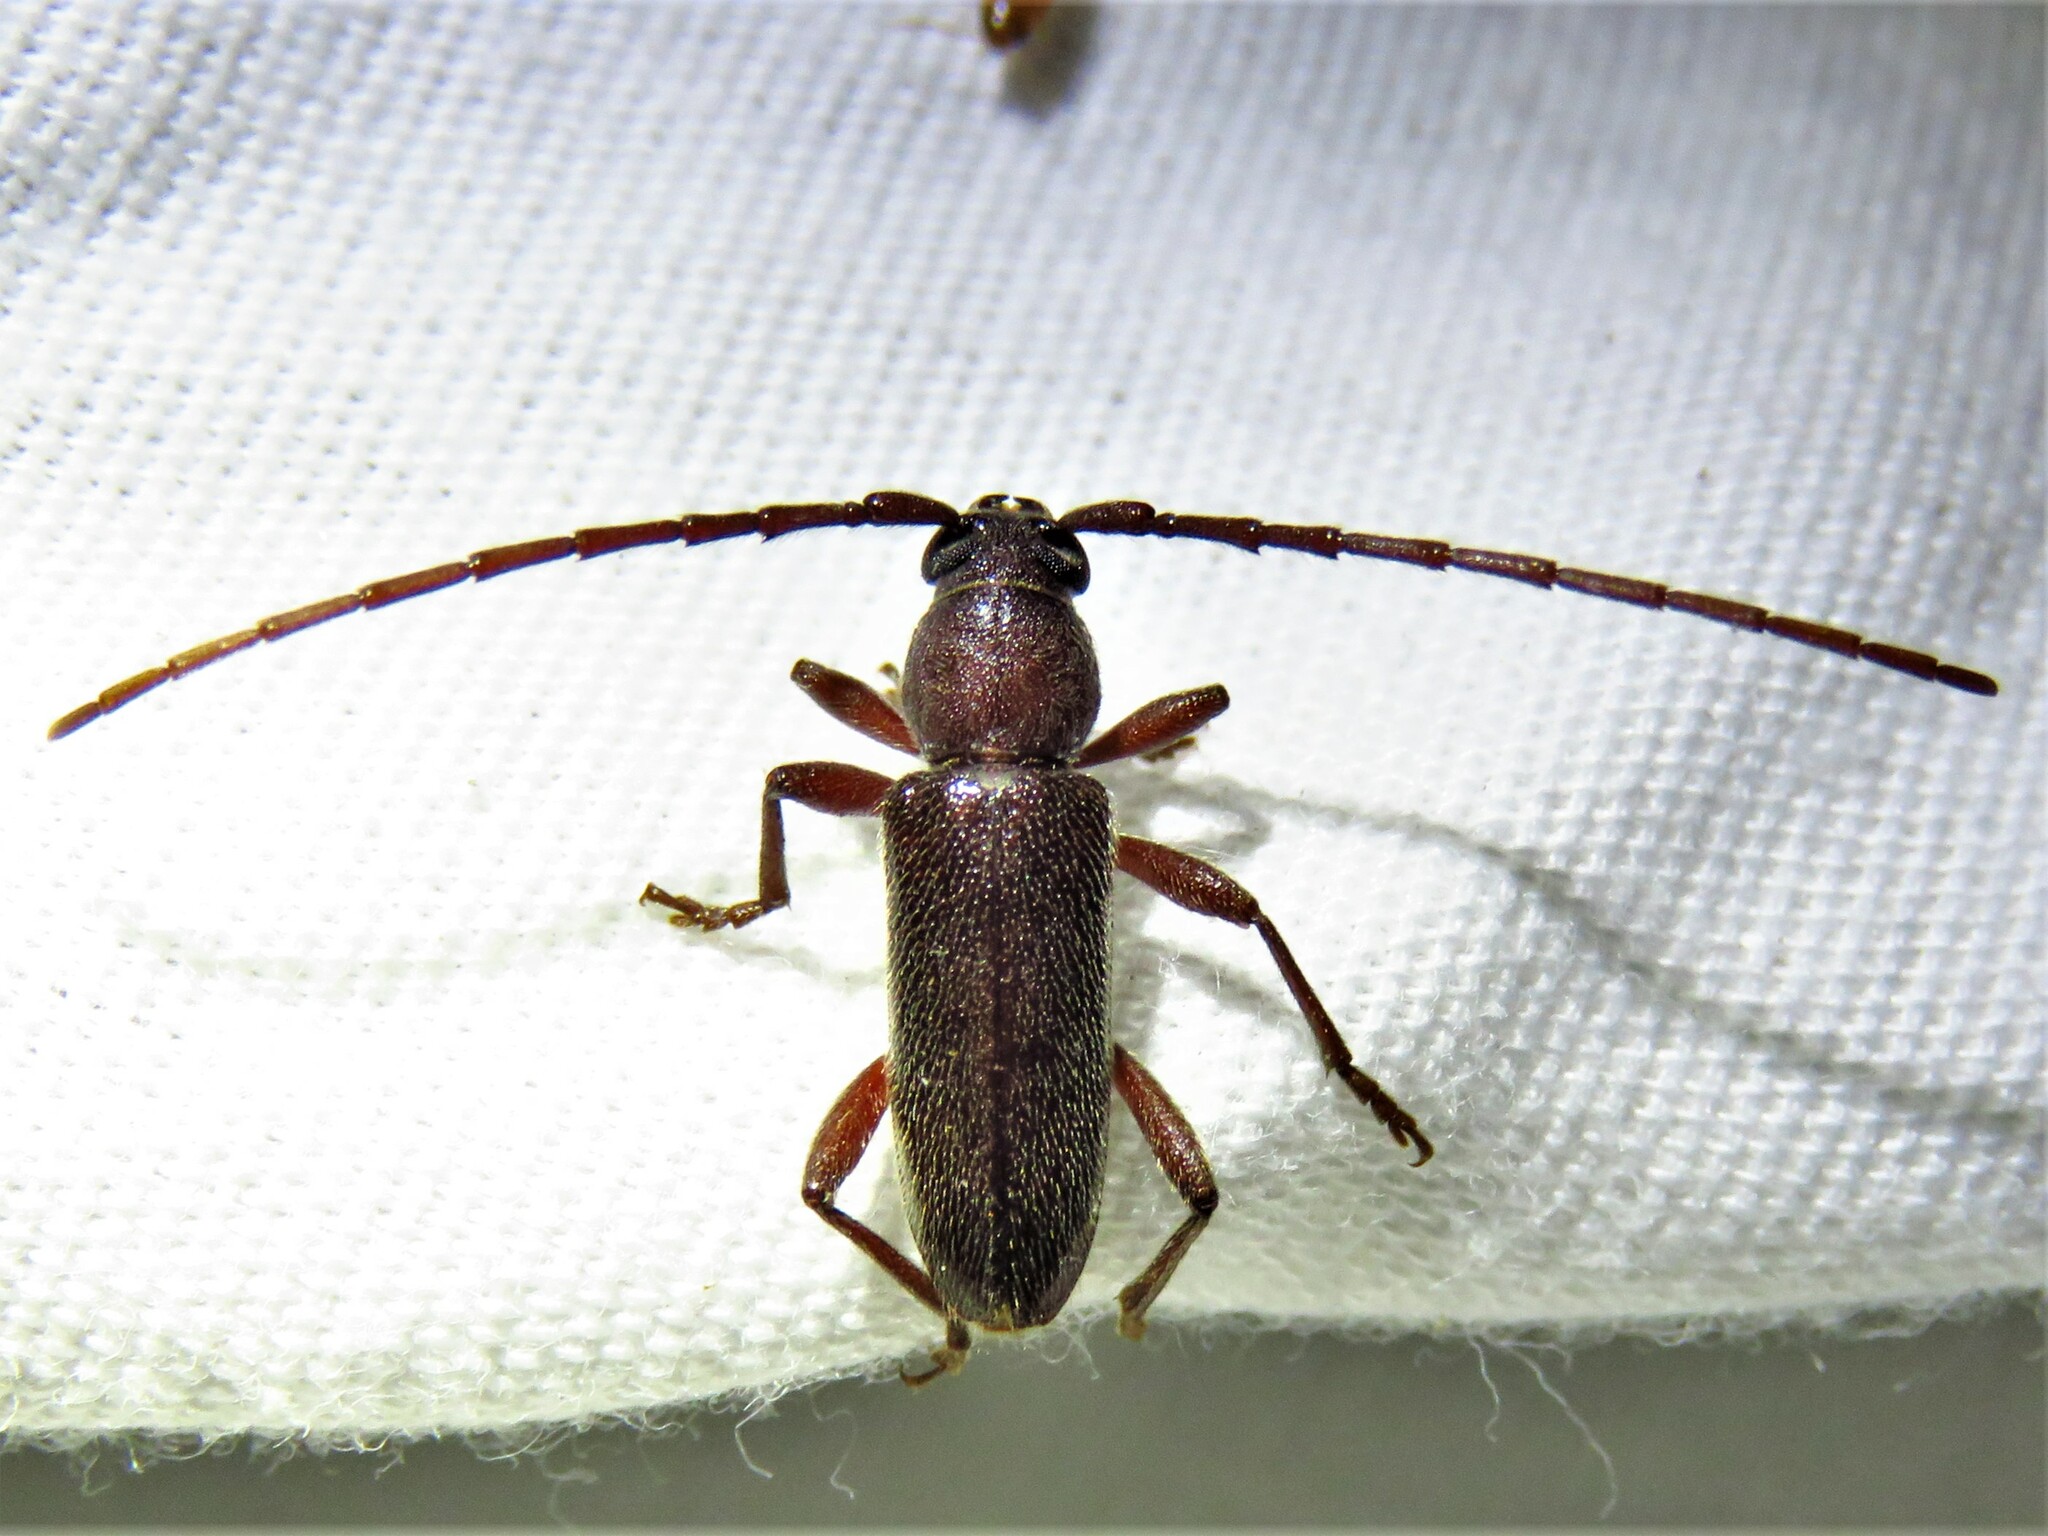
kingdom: Animalia
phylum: Arthropoda
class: Insecta
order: Coleoptera
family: Cerambycidae
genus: Anelaphus
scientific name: Anelaphus moestus
